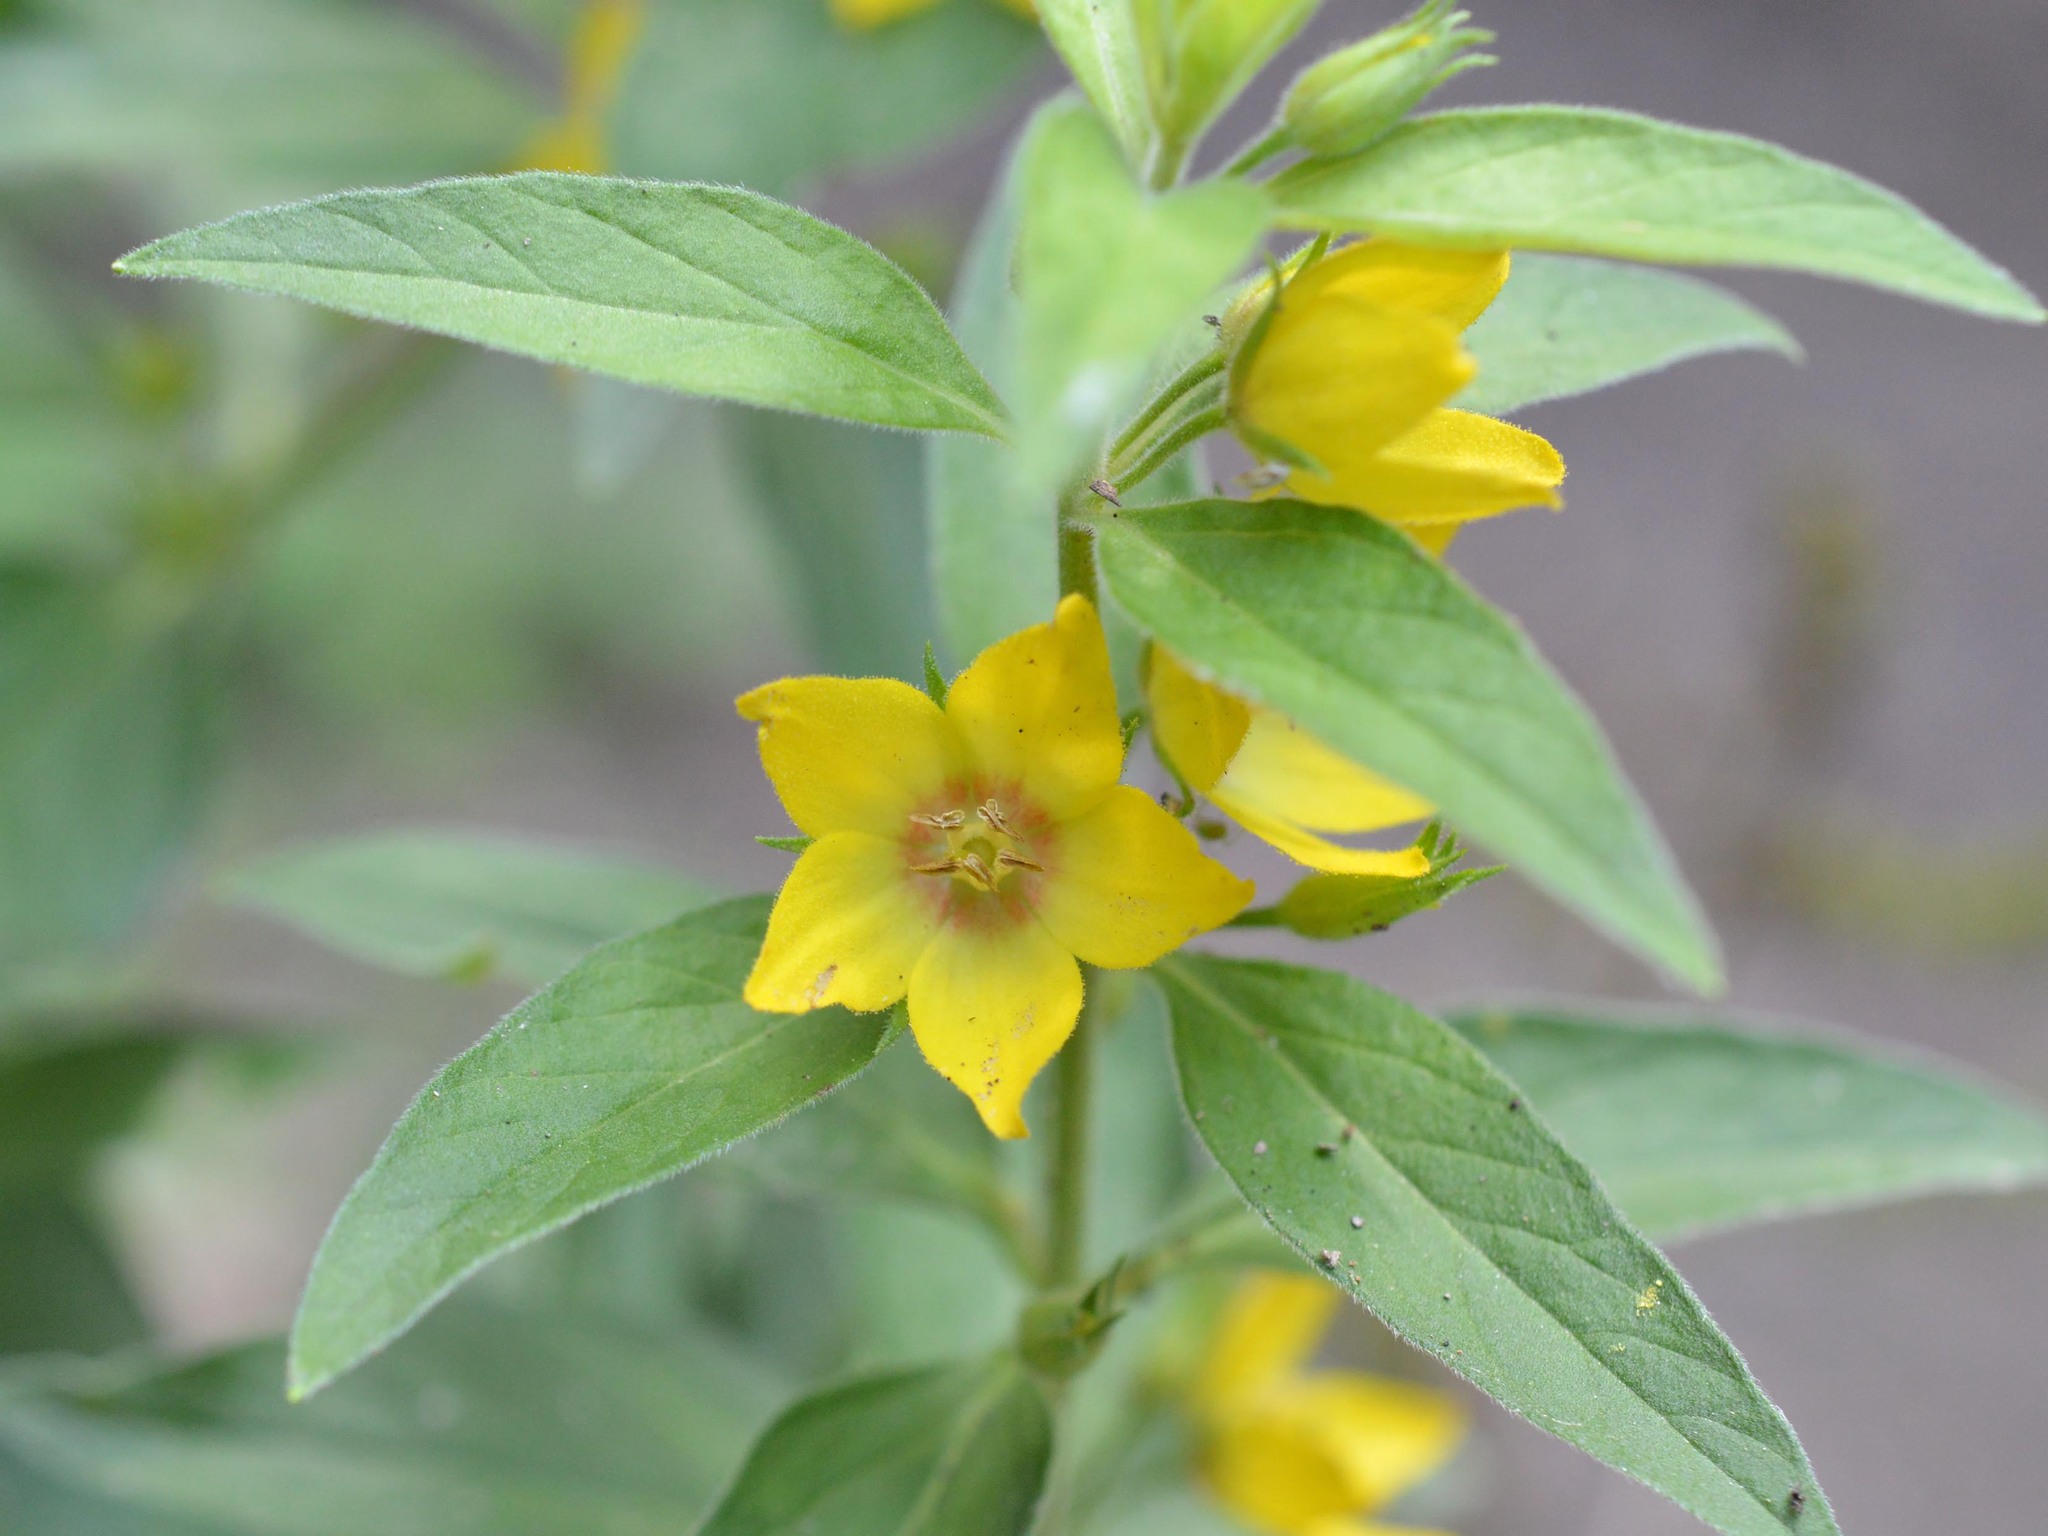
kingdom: Plantae
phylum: Tracheophyta
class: Magnoliopsida
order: Ericales
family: Primulaceae
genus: Lysimachia
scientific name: Lysimachia punctata
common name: Dotted loosestrife
